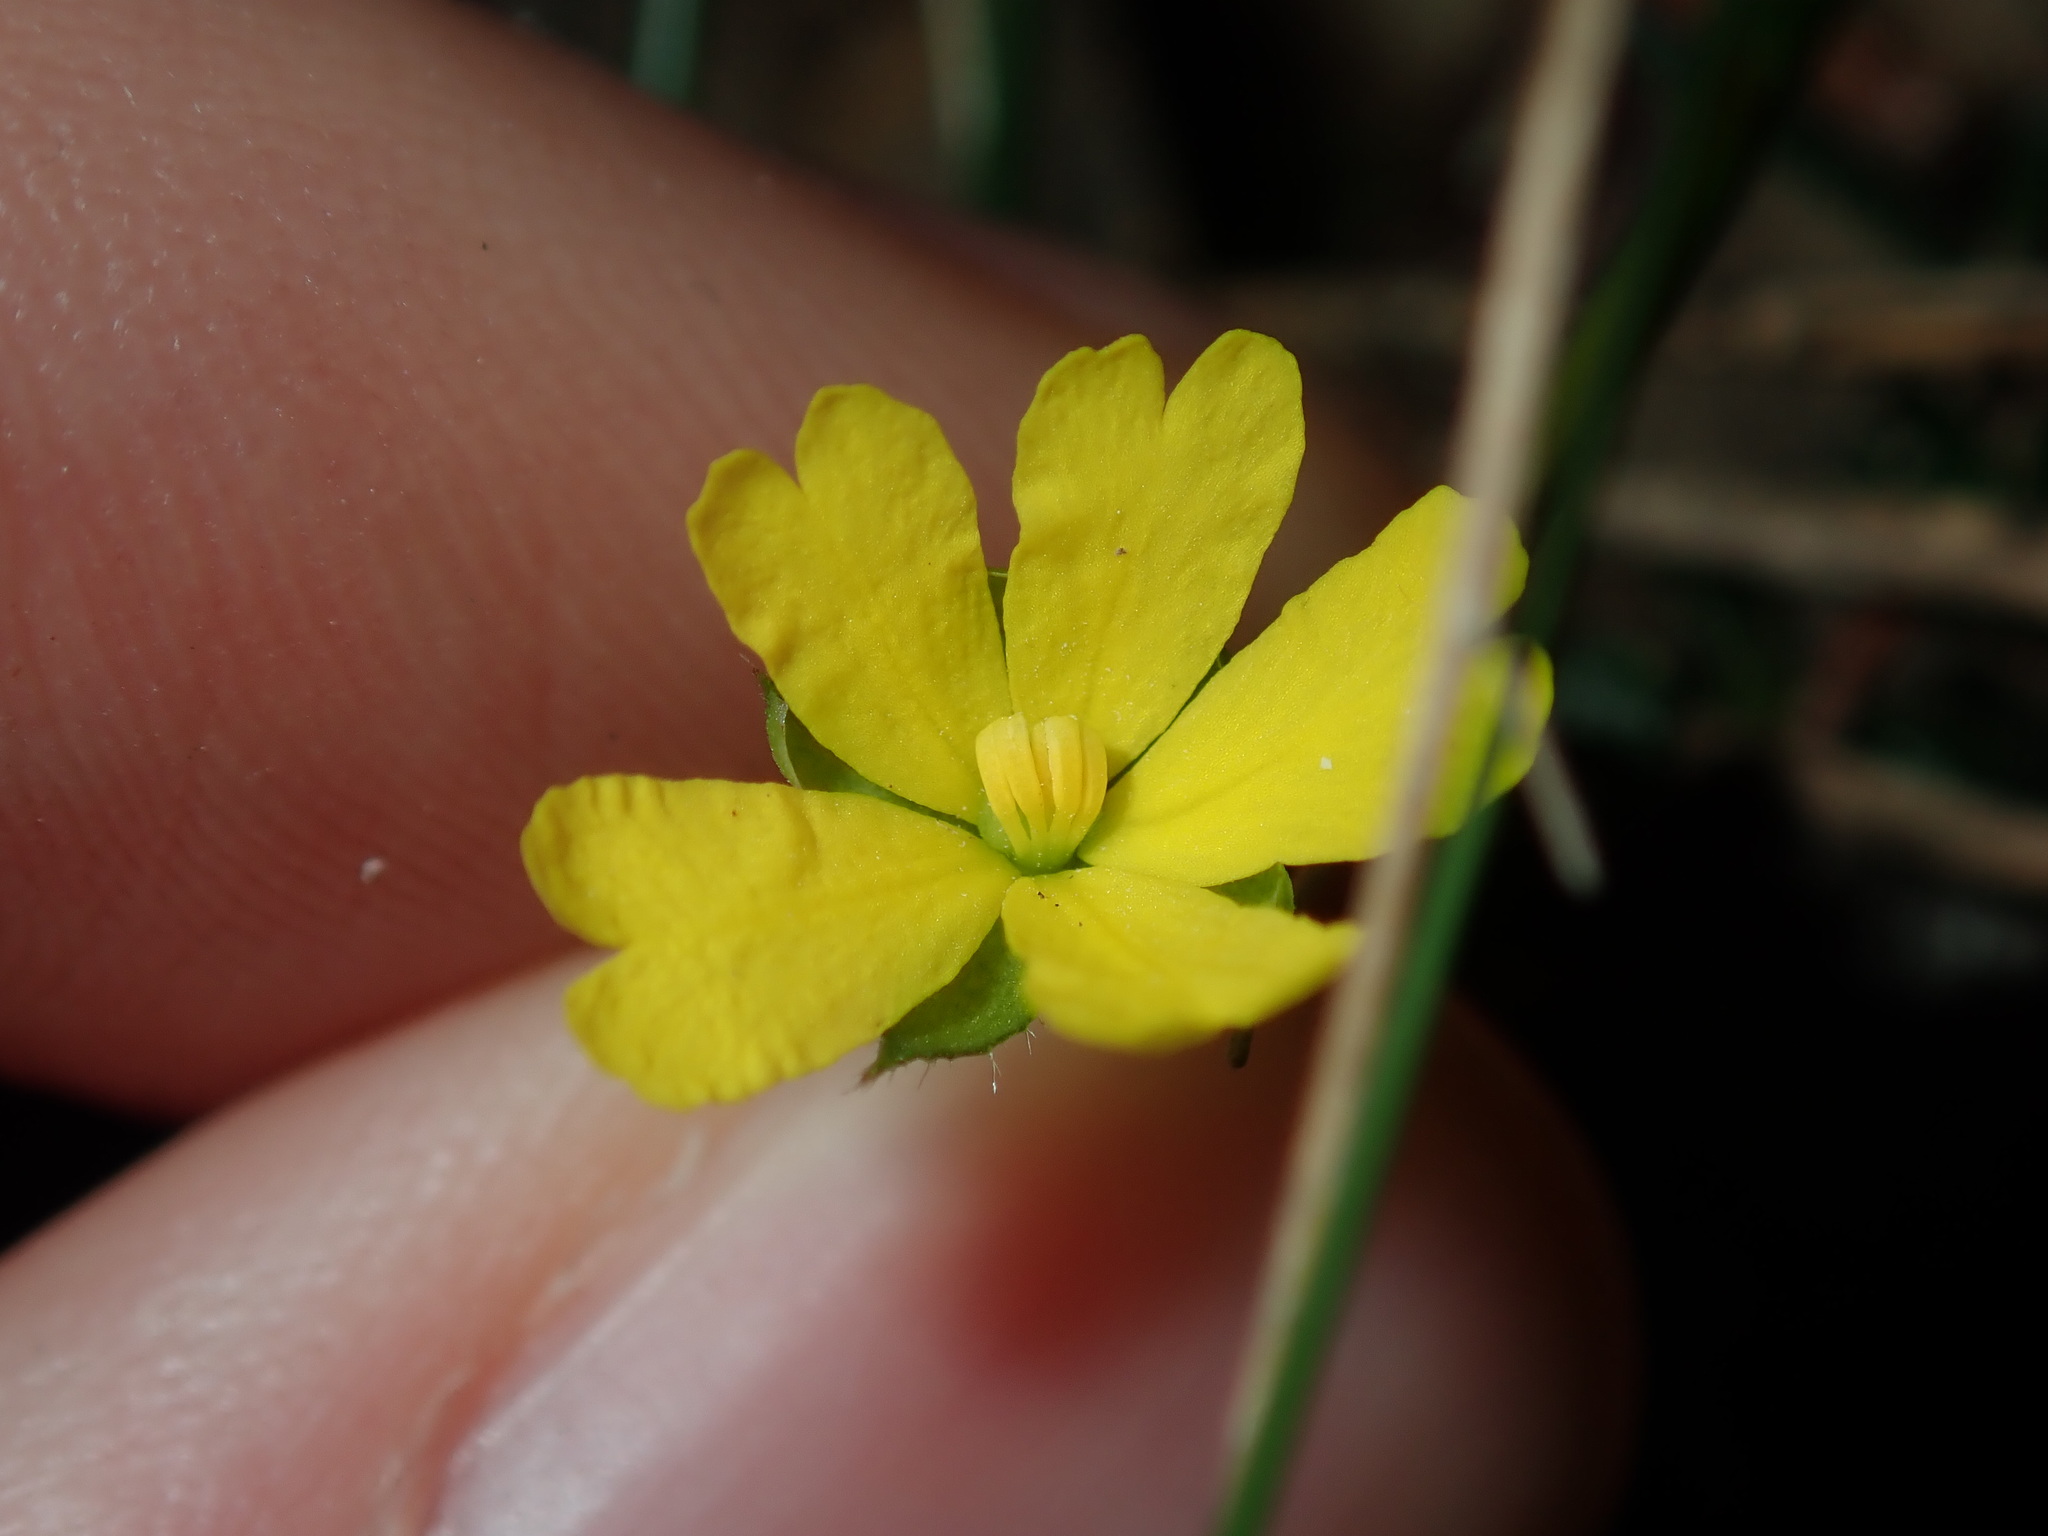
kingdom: Plantae
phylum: Tracheophyta
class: Magnoliopsida
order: Dilleniales
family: Dilleniaceae
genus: Hibbertia
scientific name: Hibbertia empetrifolia
